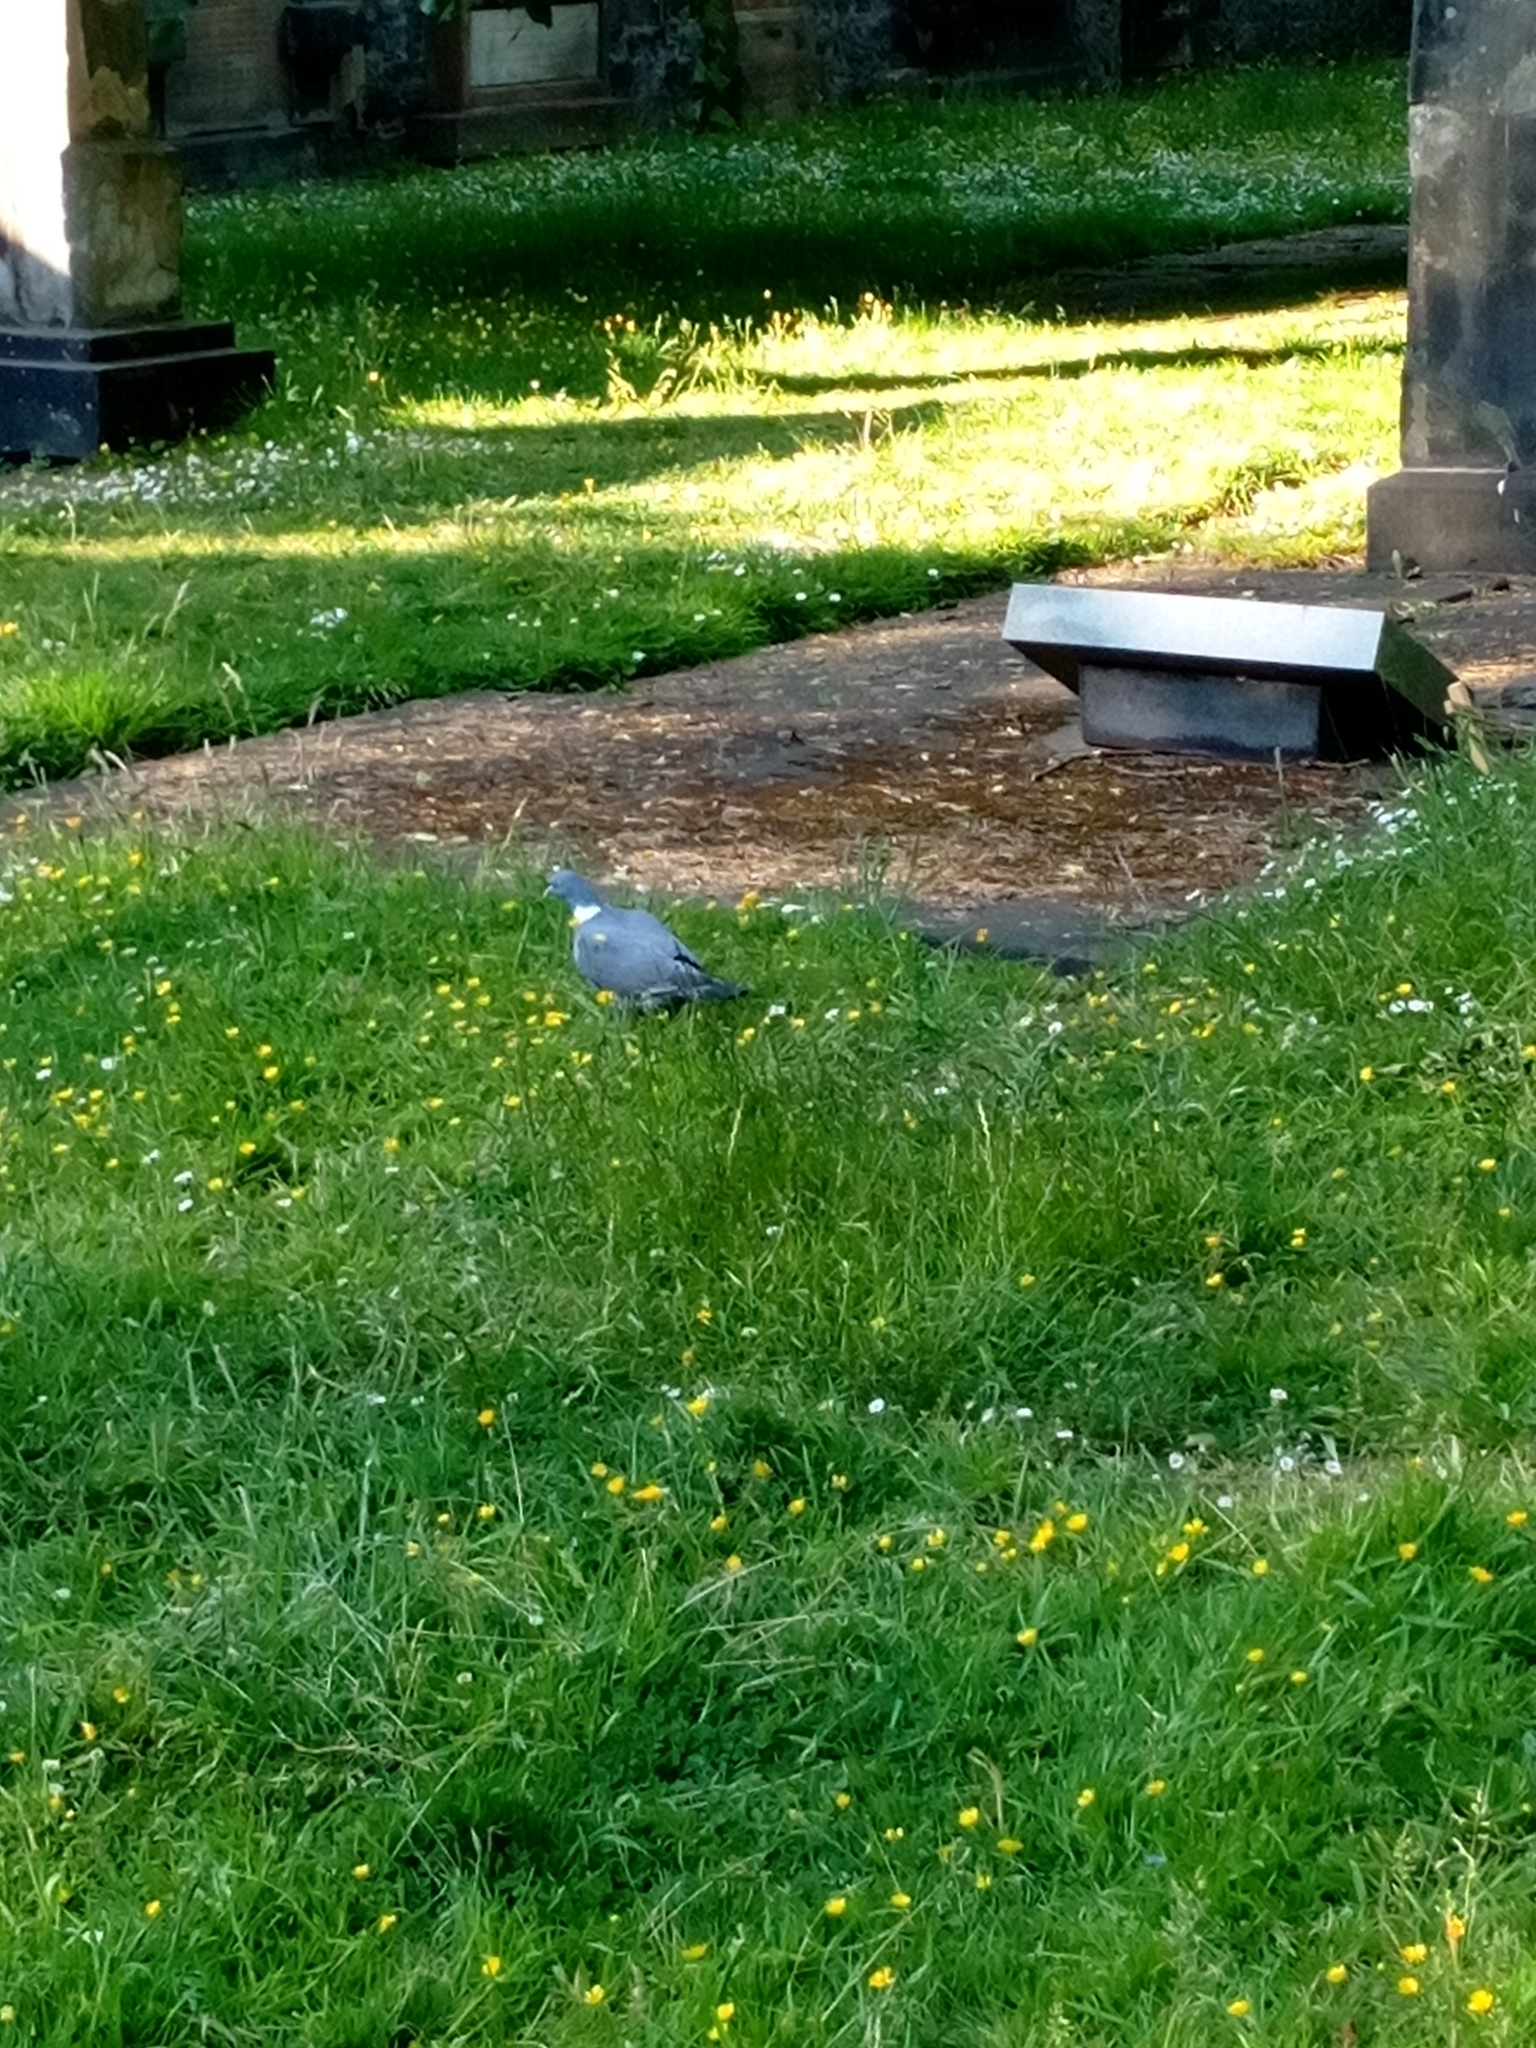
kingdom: Animalia
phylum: Chordata
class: Aves
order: Columbiformes
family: Columbidae
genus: Columba
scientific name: Columba palumbus
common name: Common wood pigeon
